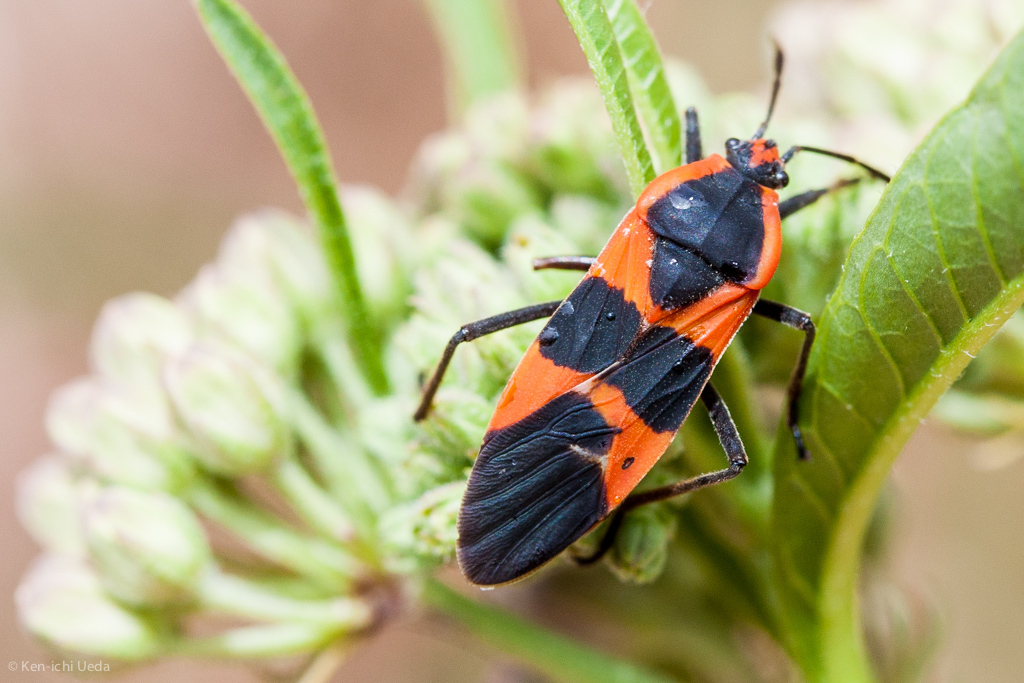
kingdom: Animalia
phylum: Arthropoda
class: Insecta
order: Hemiptera
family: Lygaeidae
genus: Oncopeltus
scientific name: Oncopeltus fasciatus
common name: Large milkweed bug
